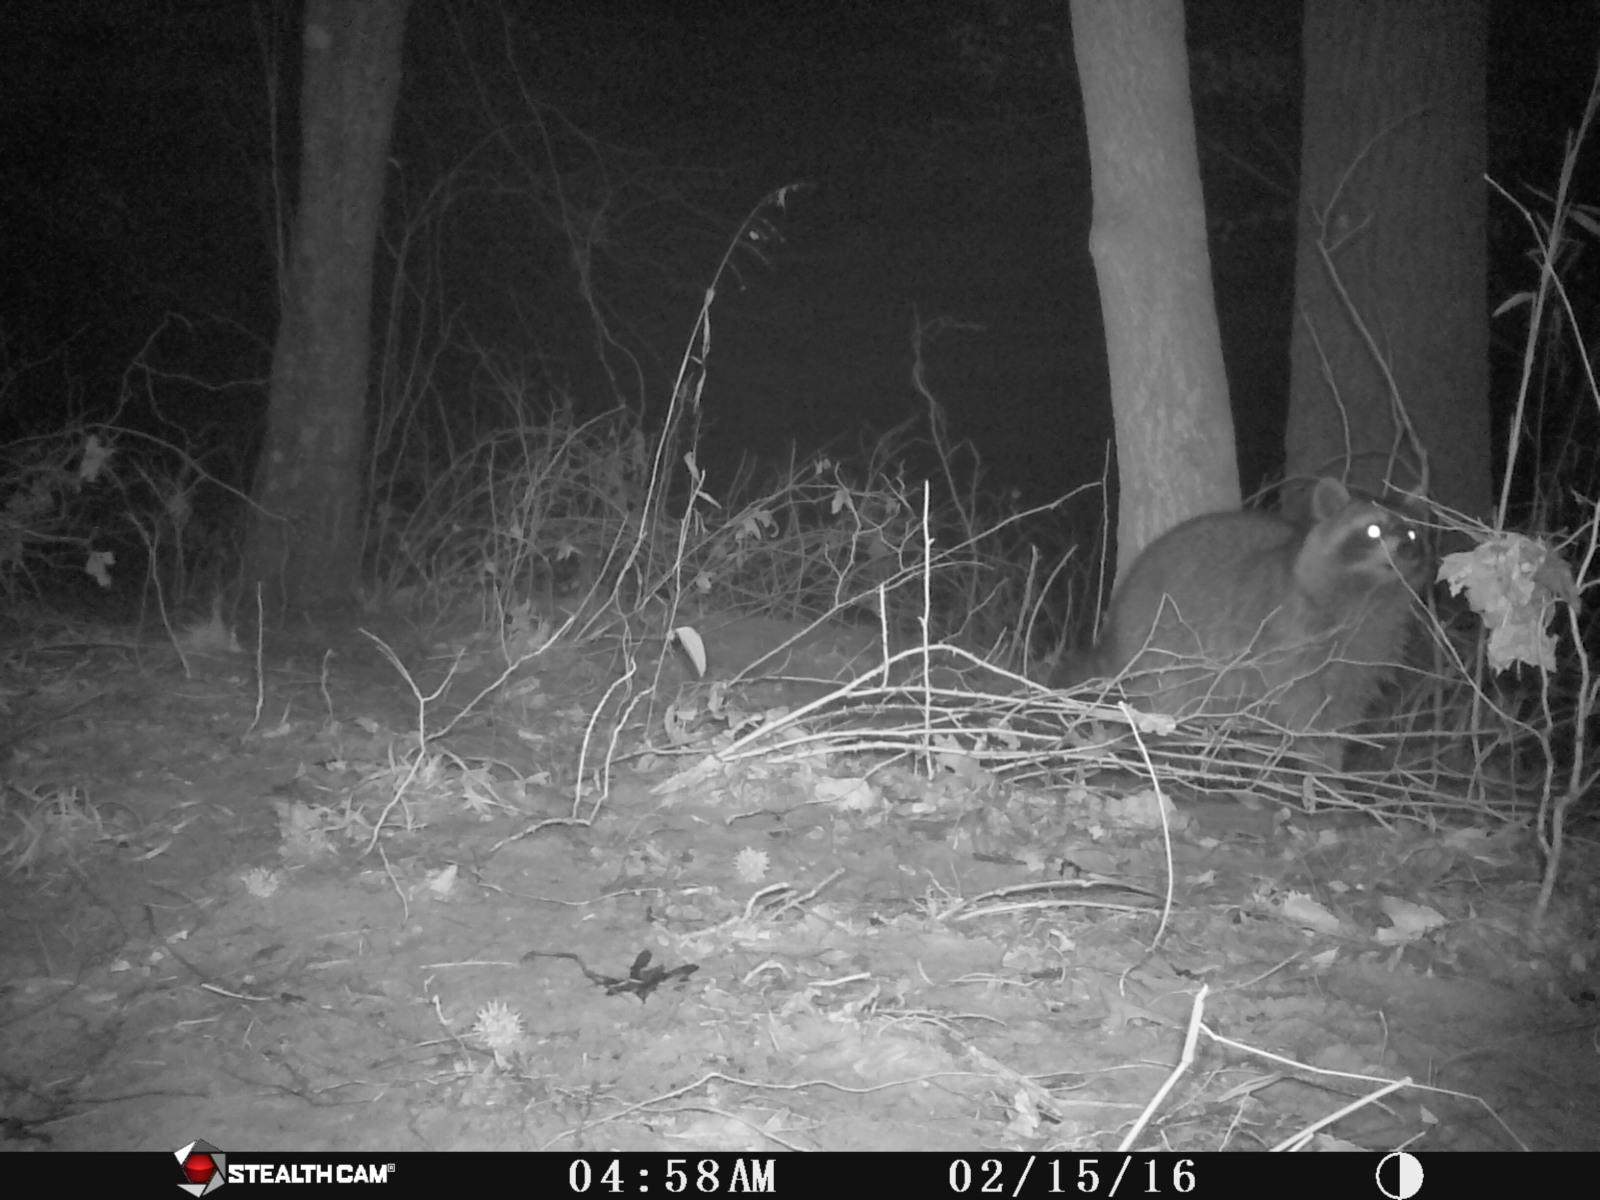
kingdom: Animalia
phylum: Chordata
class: Mammalia
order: Carnivora
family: Procyonidae
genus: Procyon
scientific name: Procyon lotor
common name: Raccoon
